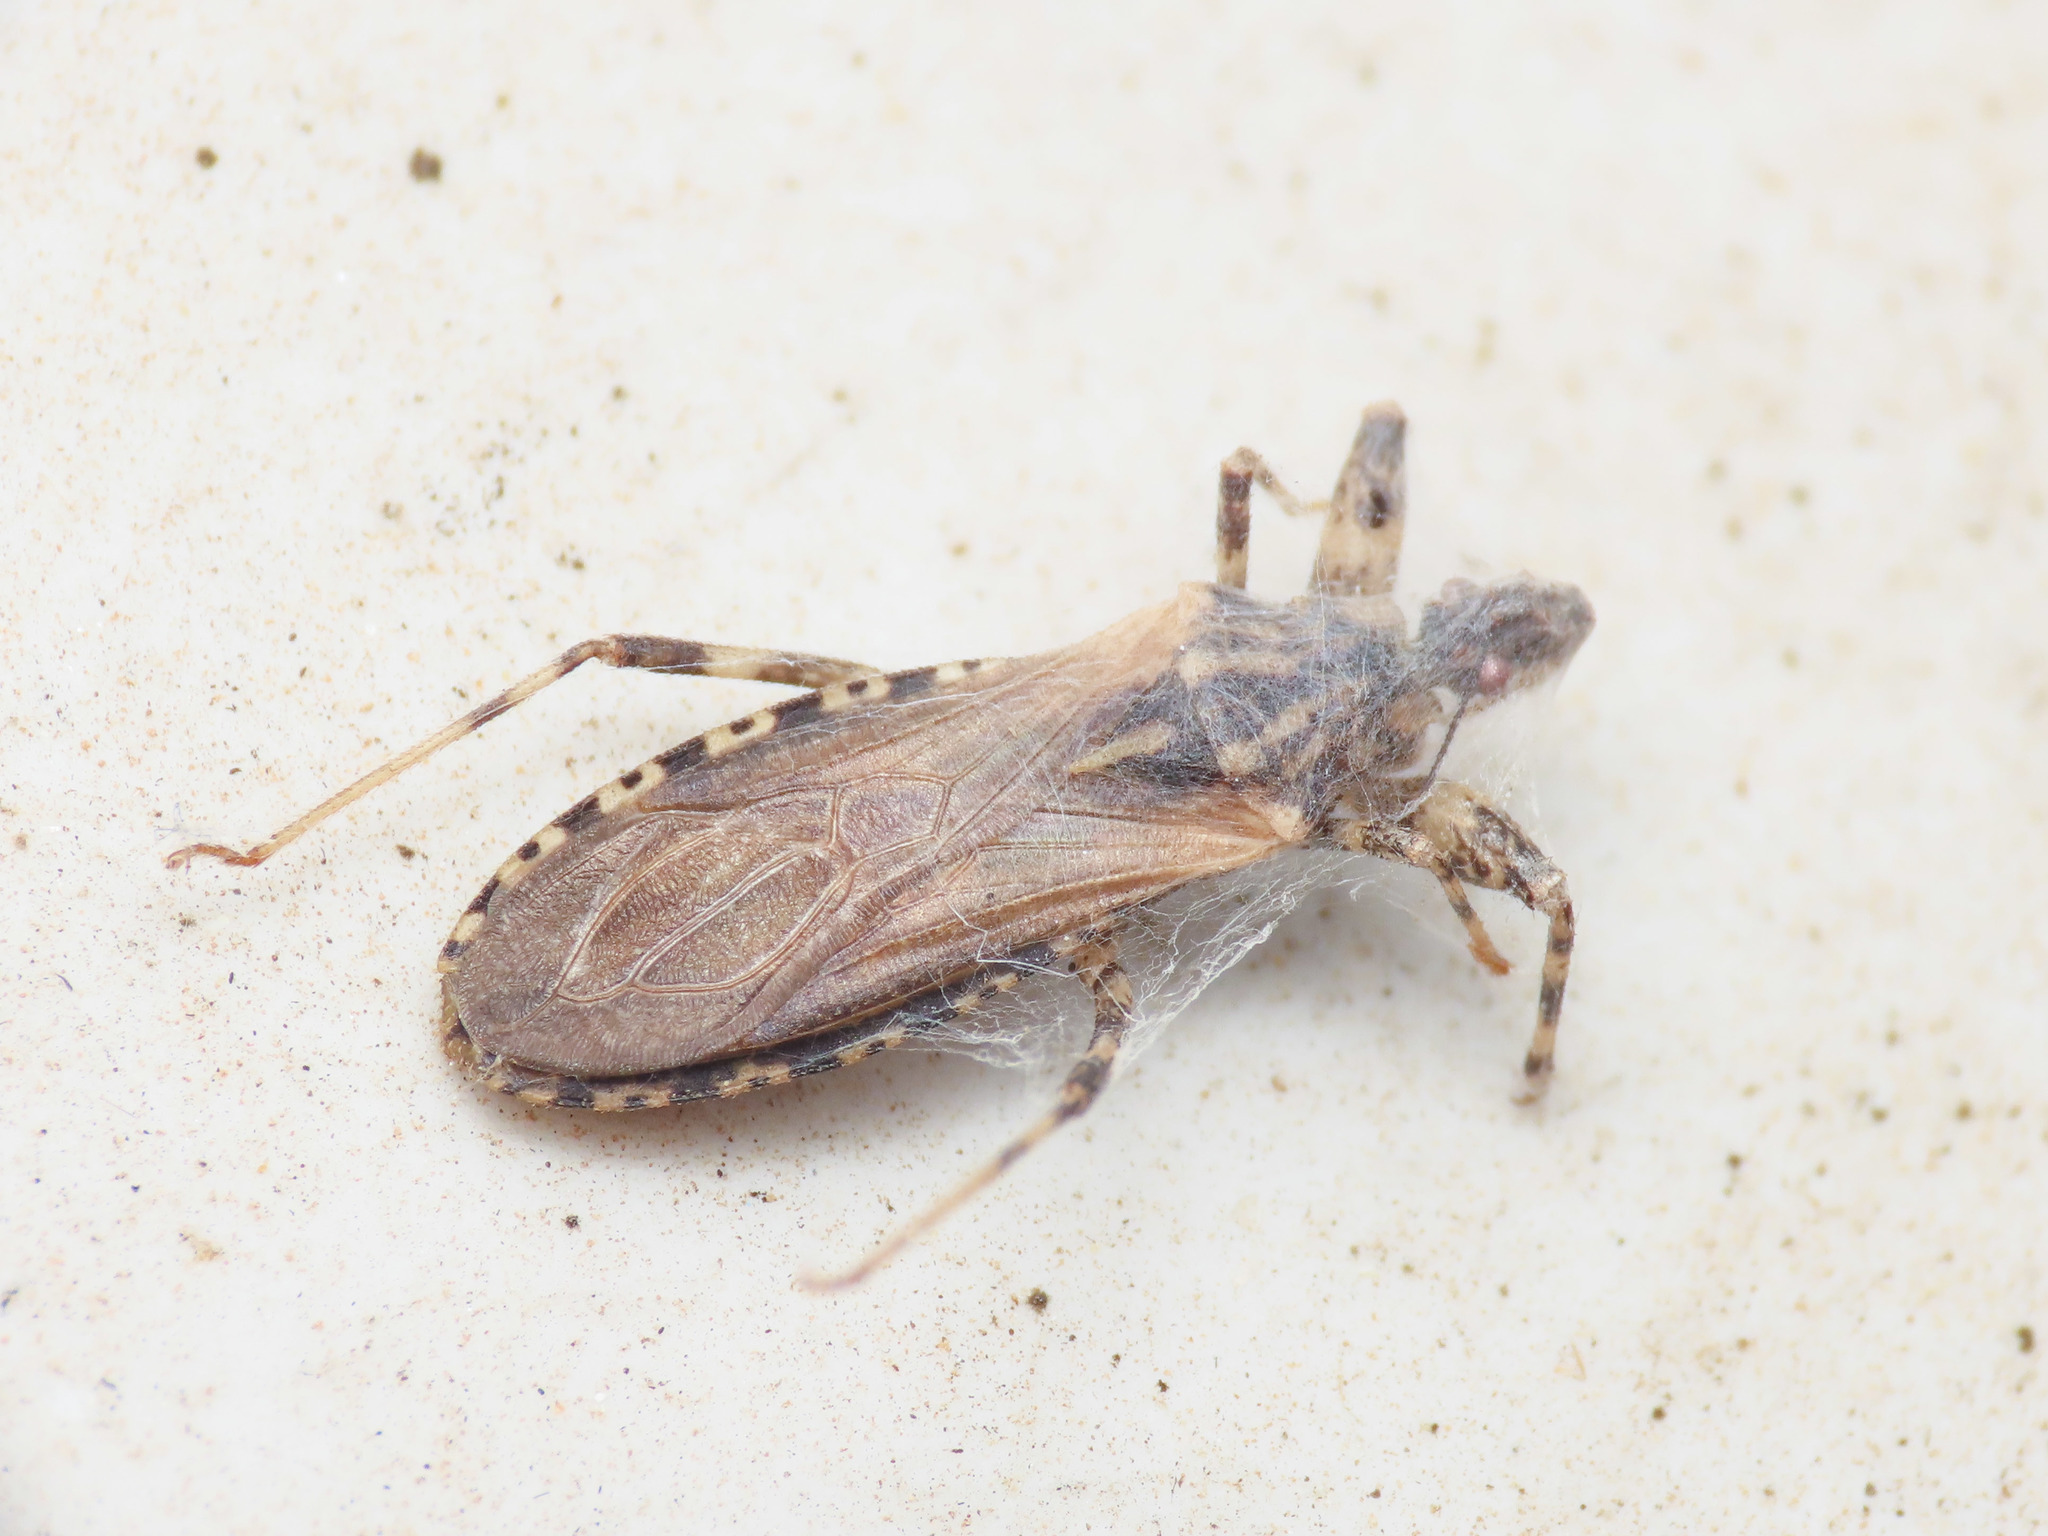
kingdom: Animalia
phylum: Arthropoda
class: Insecta
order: Hemiptera
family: Reduviidae
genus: Oncocephalus
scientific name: Oncocephalus squalidus
